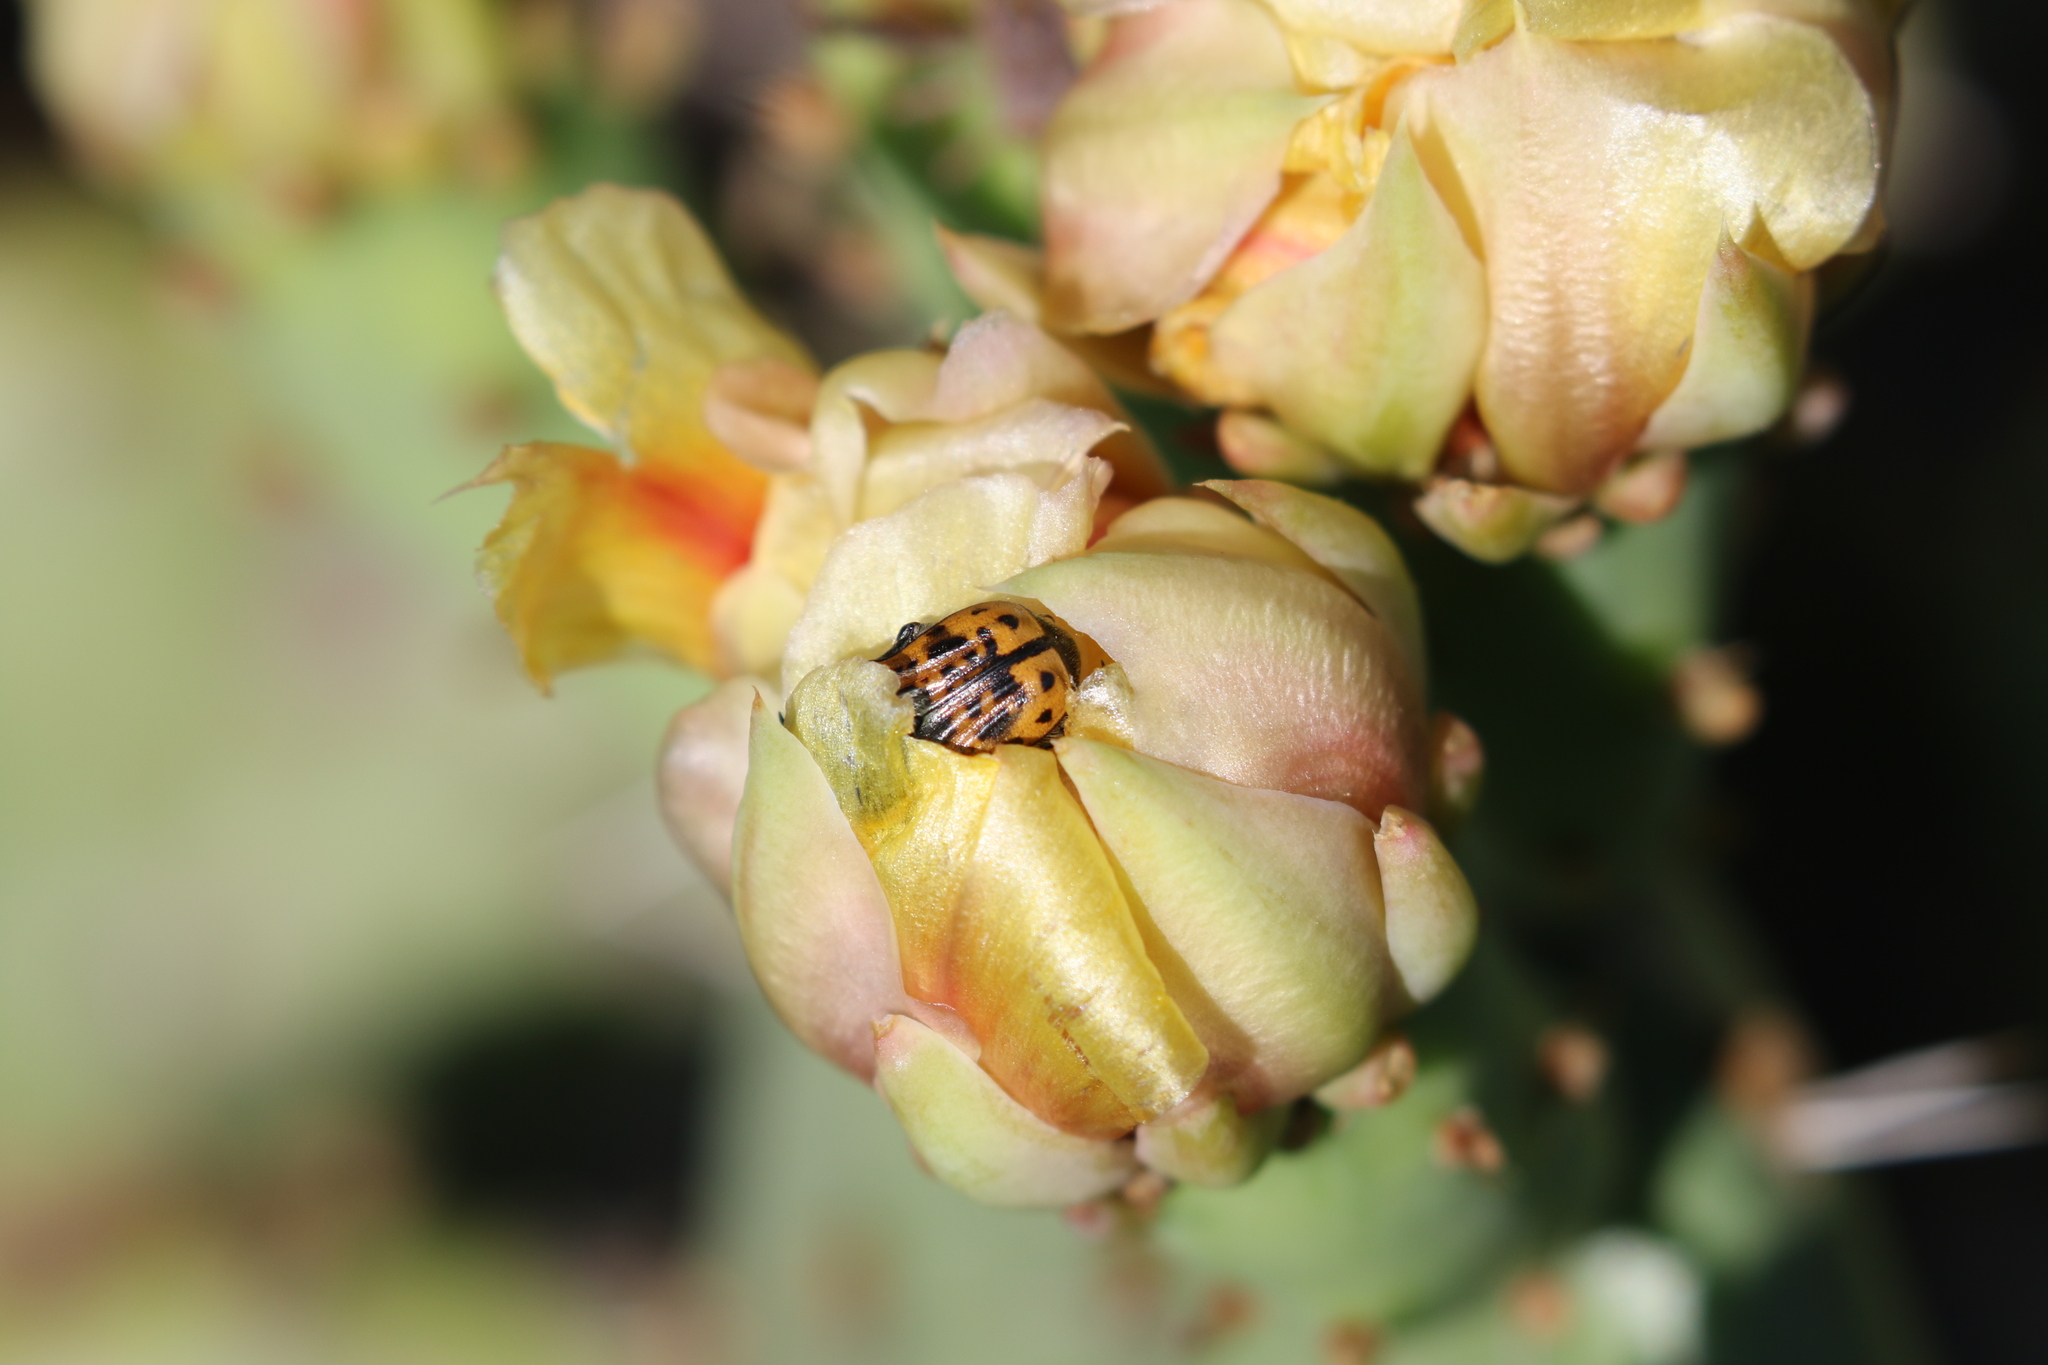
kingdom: Animalia
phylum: Arthropoda
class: Insecta
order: Coleoptera
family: Scarabaeidae
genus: Euphoria
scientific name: Euphoria kernii
